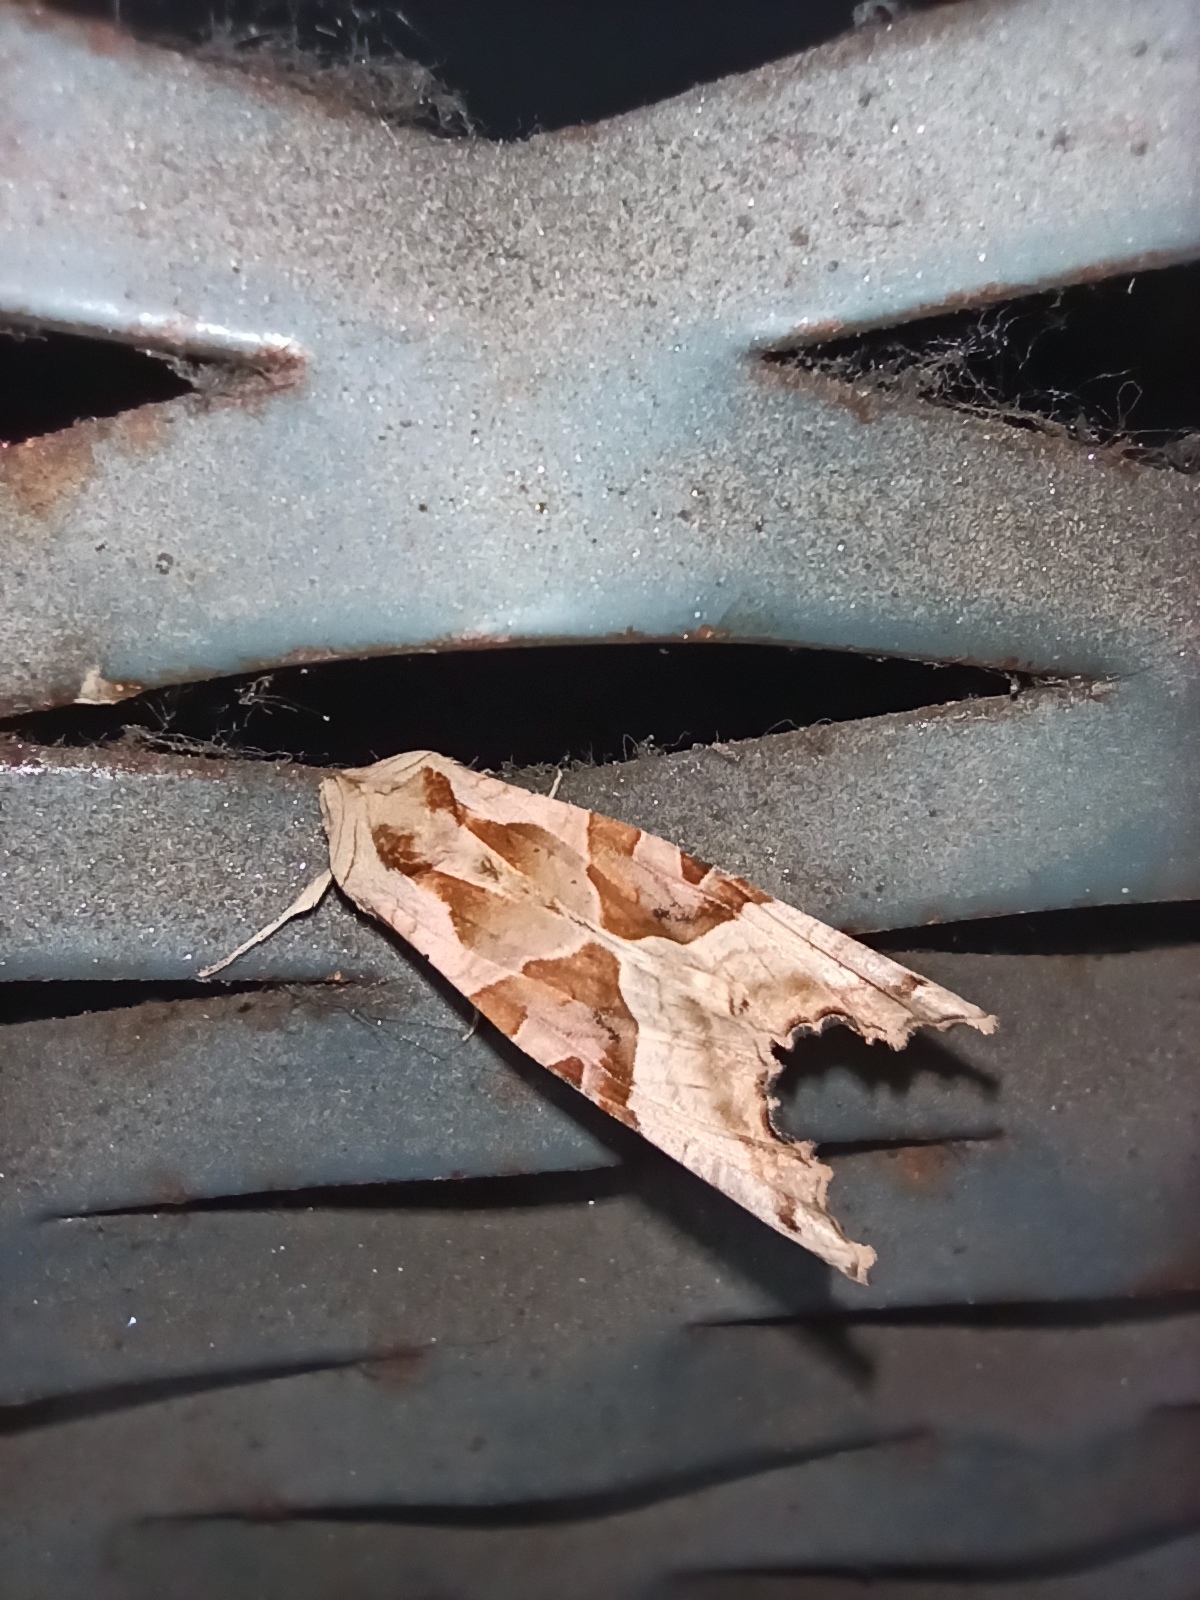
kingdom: Animalia
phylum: Arthropoda
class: Insecta
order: Lepidoptera
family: Noctuidae
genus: Phlogophora
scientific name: Phlogophora meticulosa
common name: Angle shades
